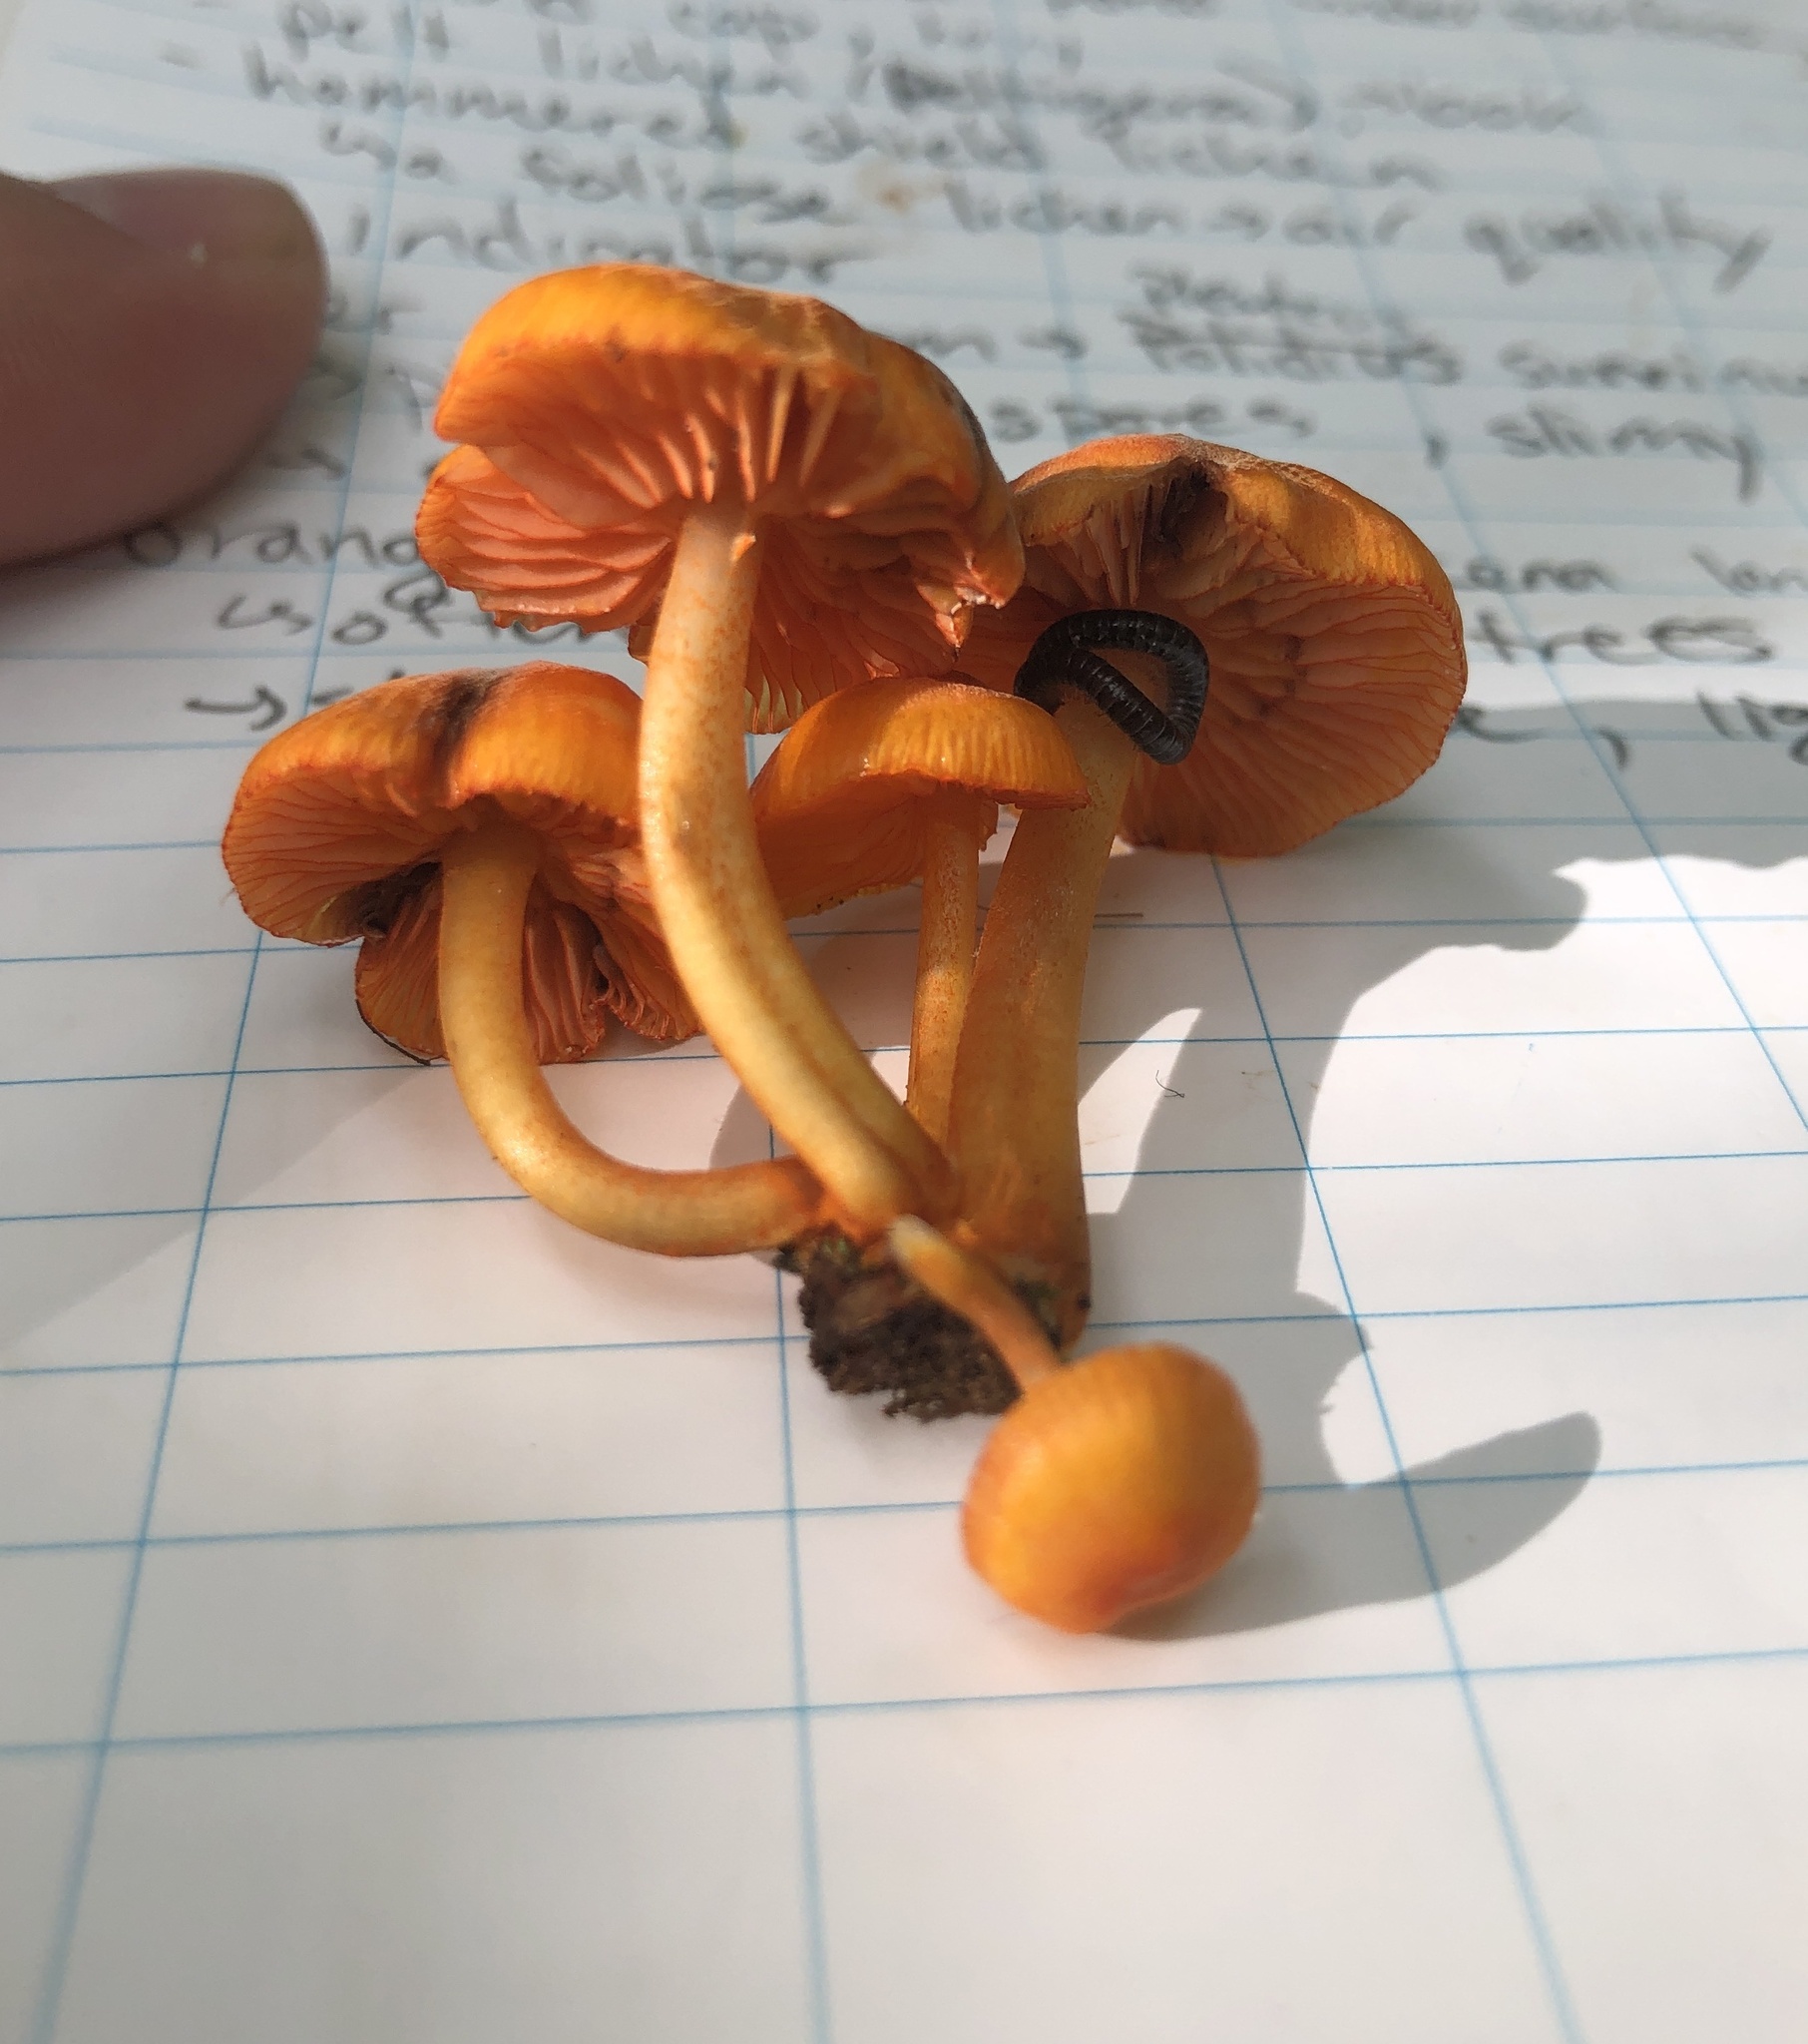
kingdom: Fungi
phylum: Basidiomycota
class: Agaricomycetes
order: Agaricales
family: Mycenaceae
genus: Mycena
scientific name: Mycena leaiana
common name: Orange mycena
